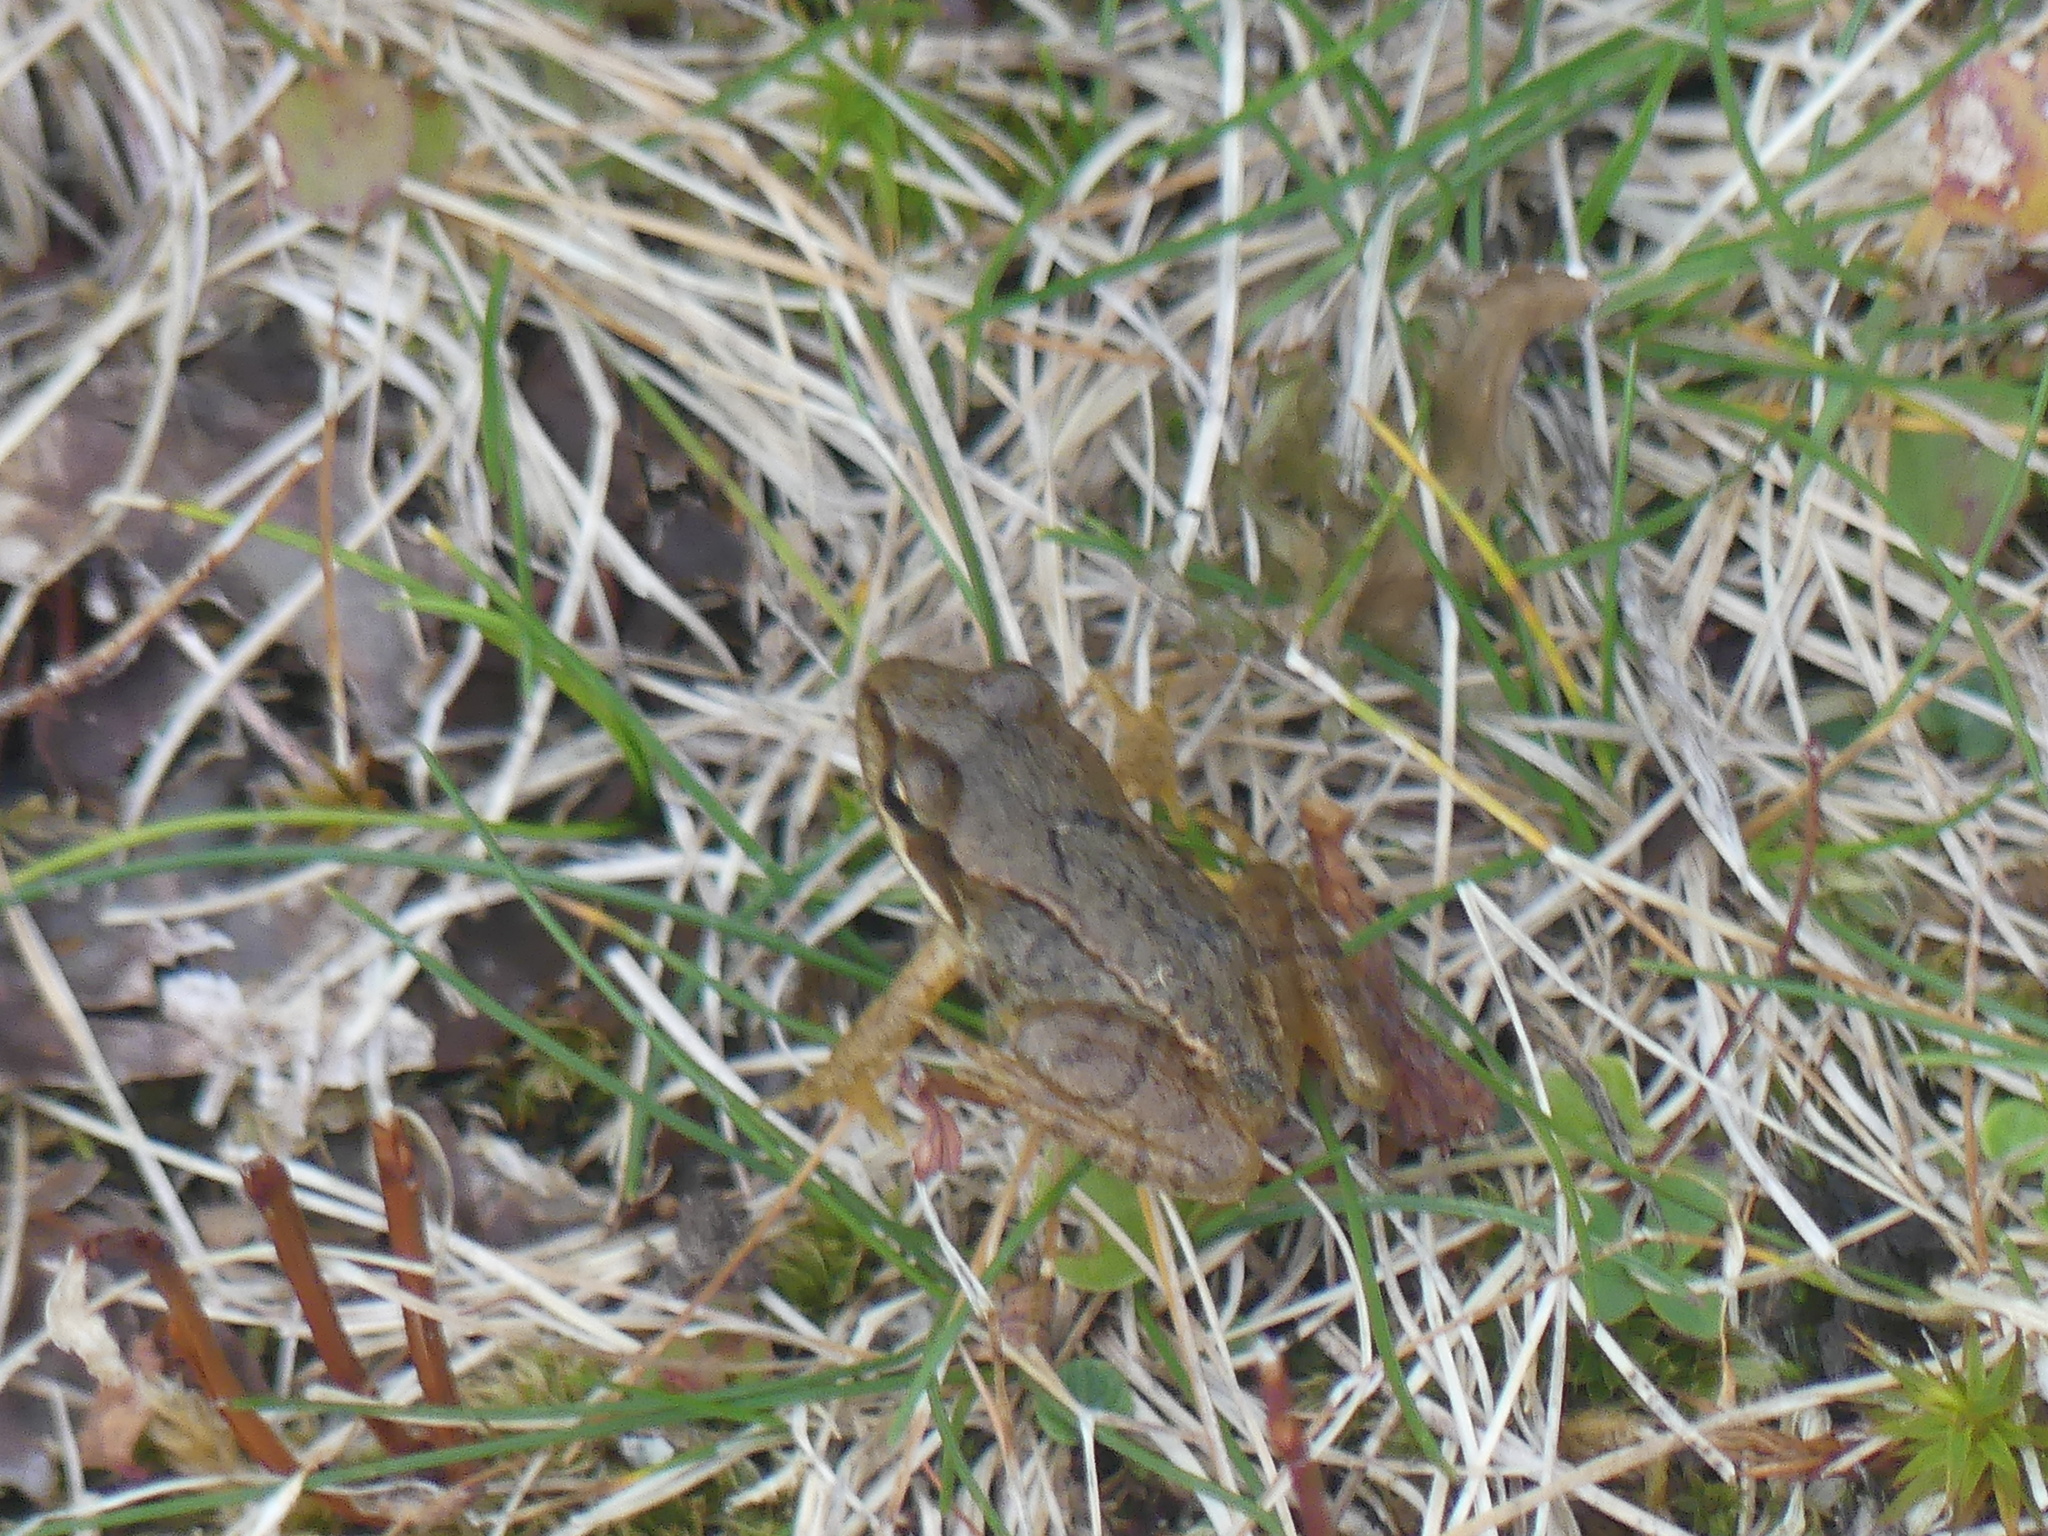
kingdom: Animalia
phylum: Chordata
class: Amphibia
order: Anura
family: Ranidae
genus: Rana
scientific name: Rana temporaria
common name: Common frog
